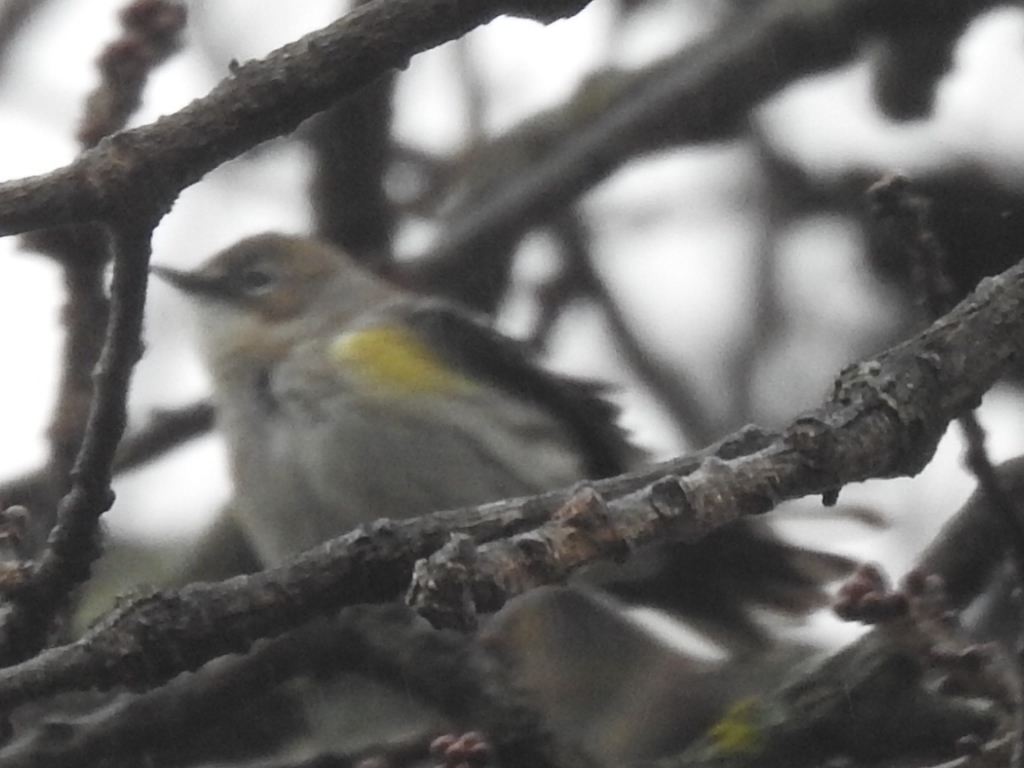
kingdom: Animalia
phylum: Chordata
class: Aves
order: Passeriformes
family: Parulidae
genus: Setophaga
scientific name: Setophaga coronata
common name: Myrtle warbler
